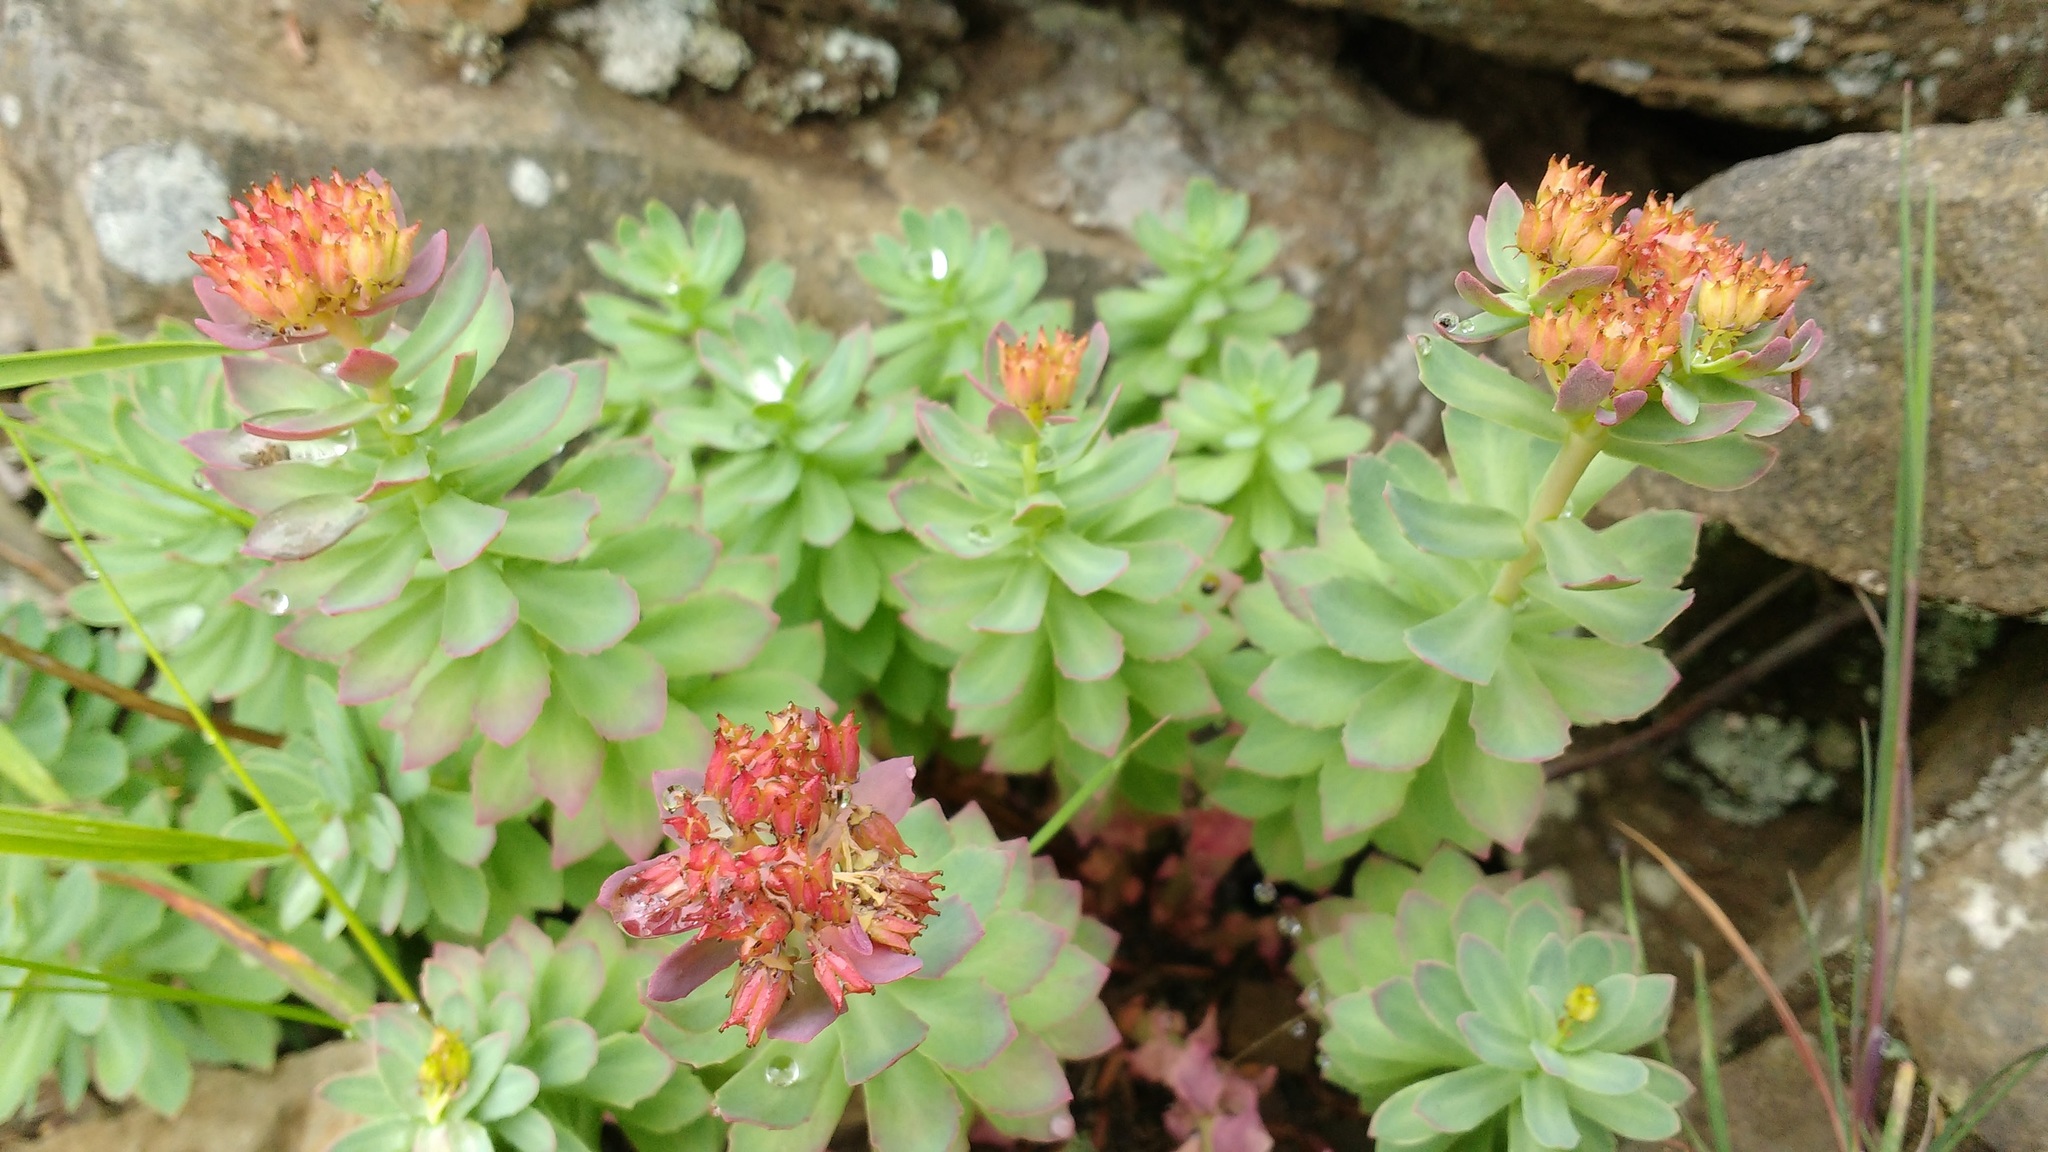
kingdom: Plantae
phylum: Tracheophyta
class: Magnoliopsida
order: Saxifragales
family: Crassulaceae
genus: Rhodiola
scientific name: Rhodiola rosea
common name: Roseroot
